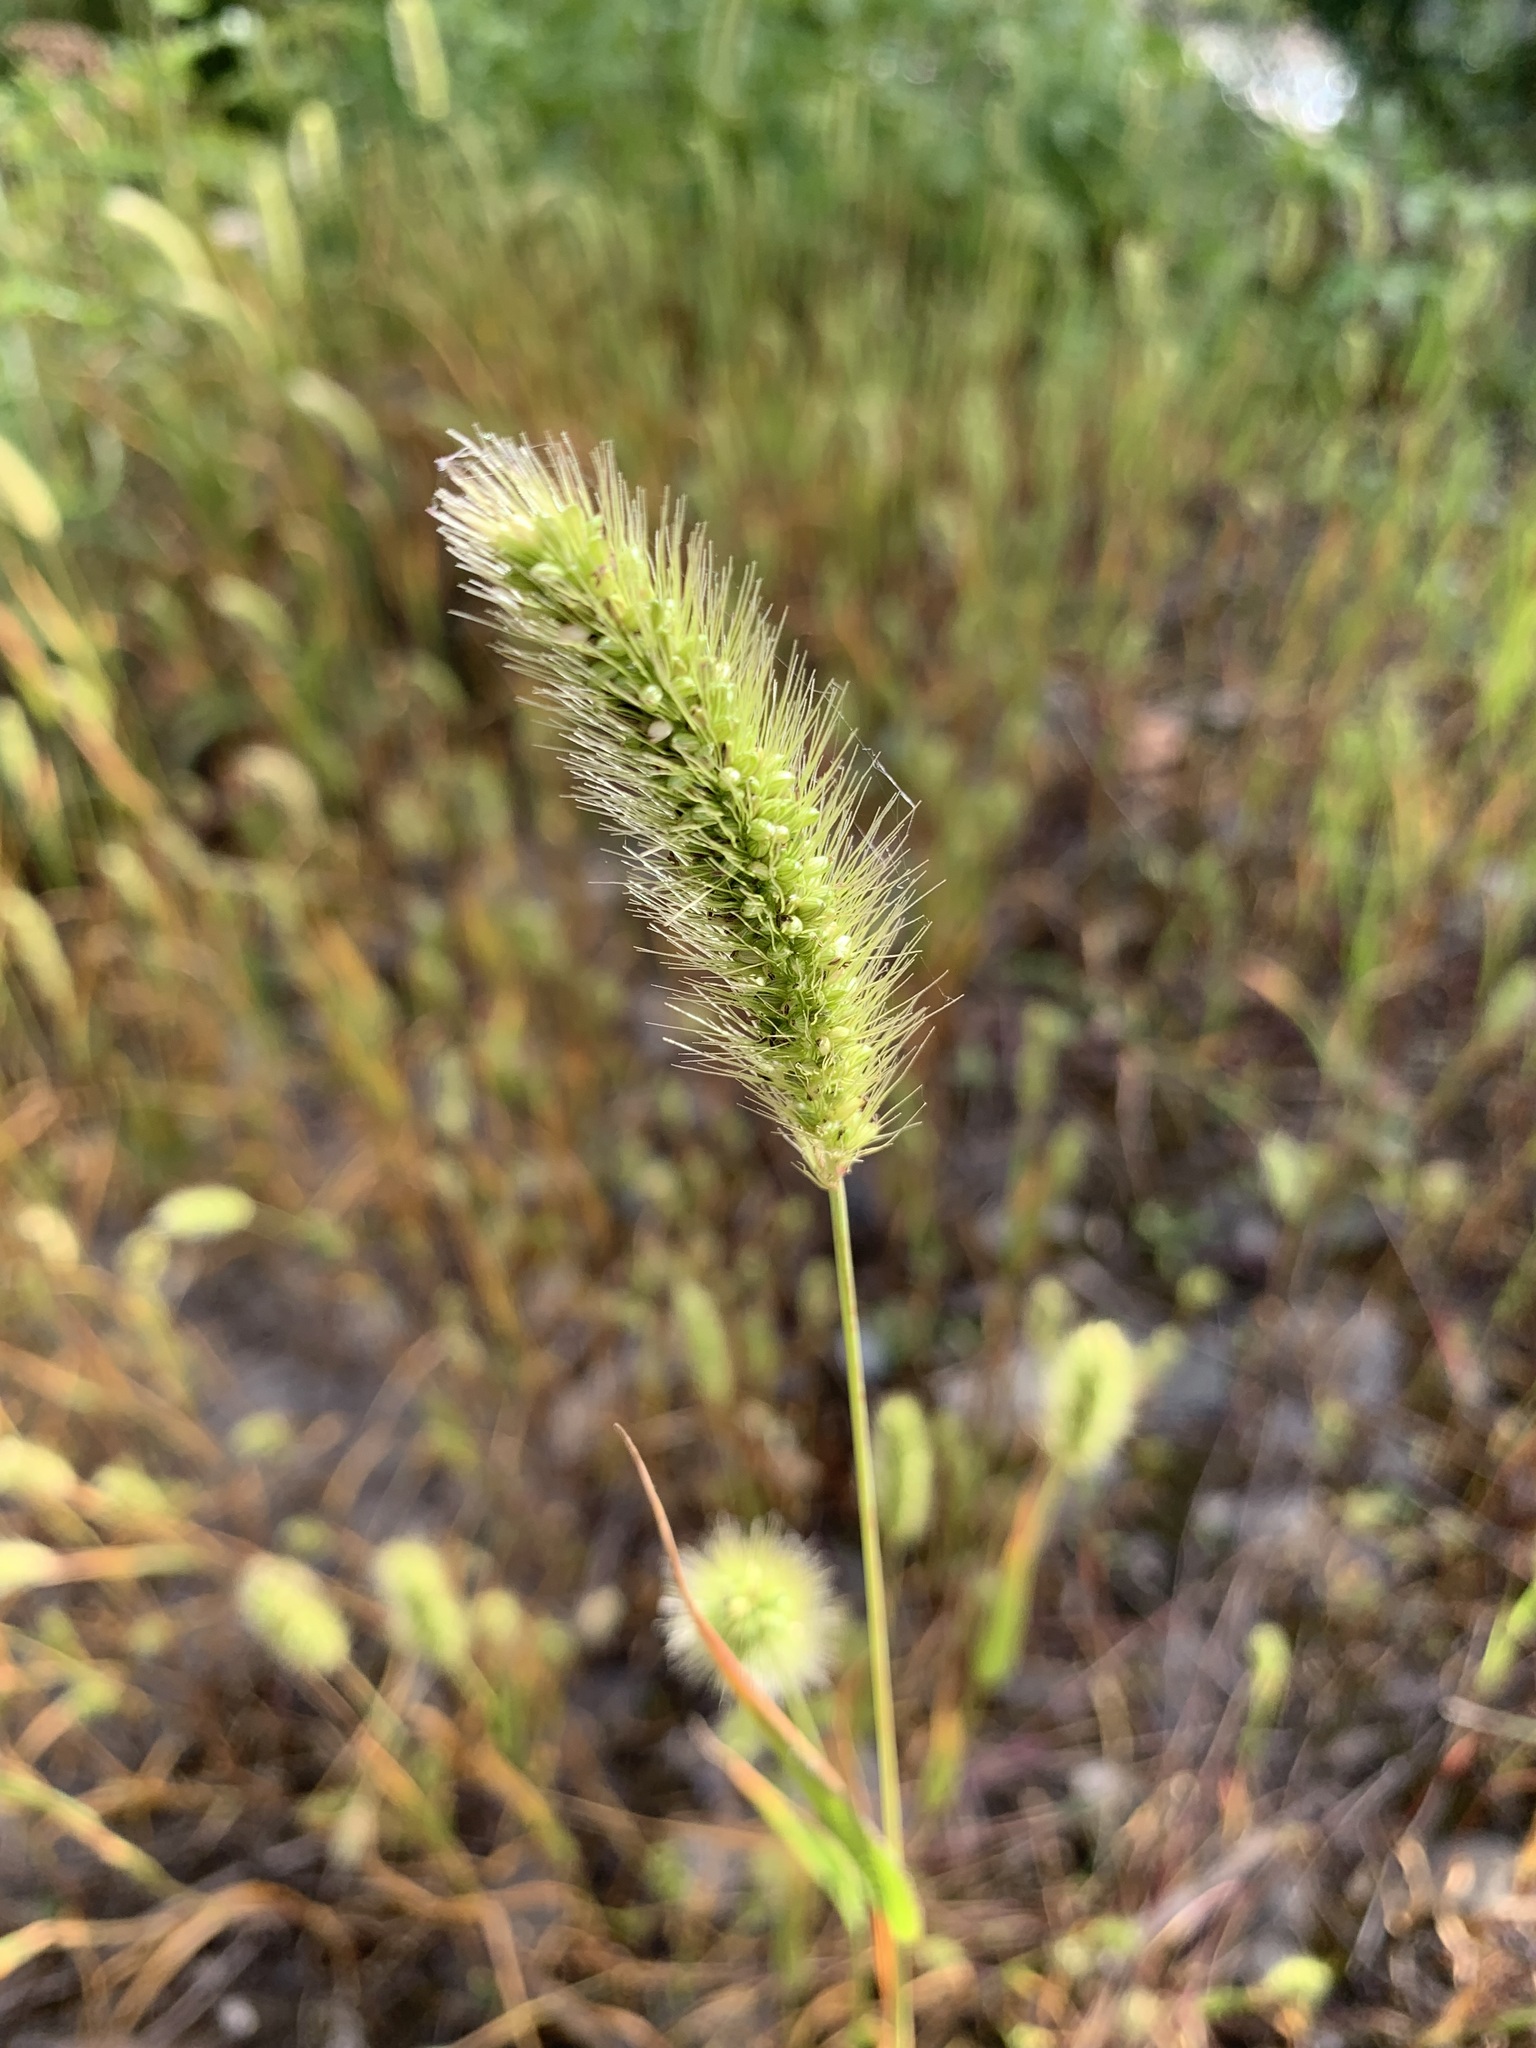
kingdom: Plantae
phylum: Tracheophyta
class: Liliopsida
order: Poales
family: Poaceae
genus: Setaria
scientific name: Setaria viridis
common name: Green bristlegrass
